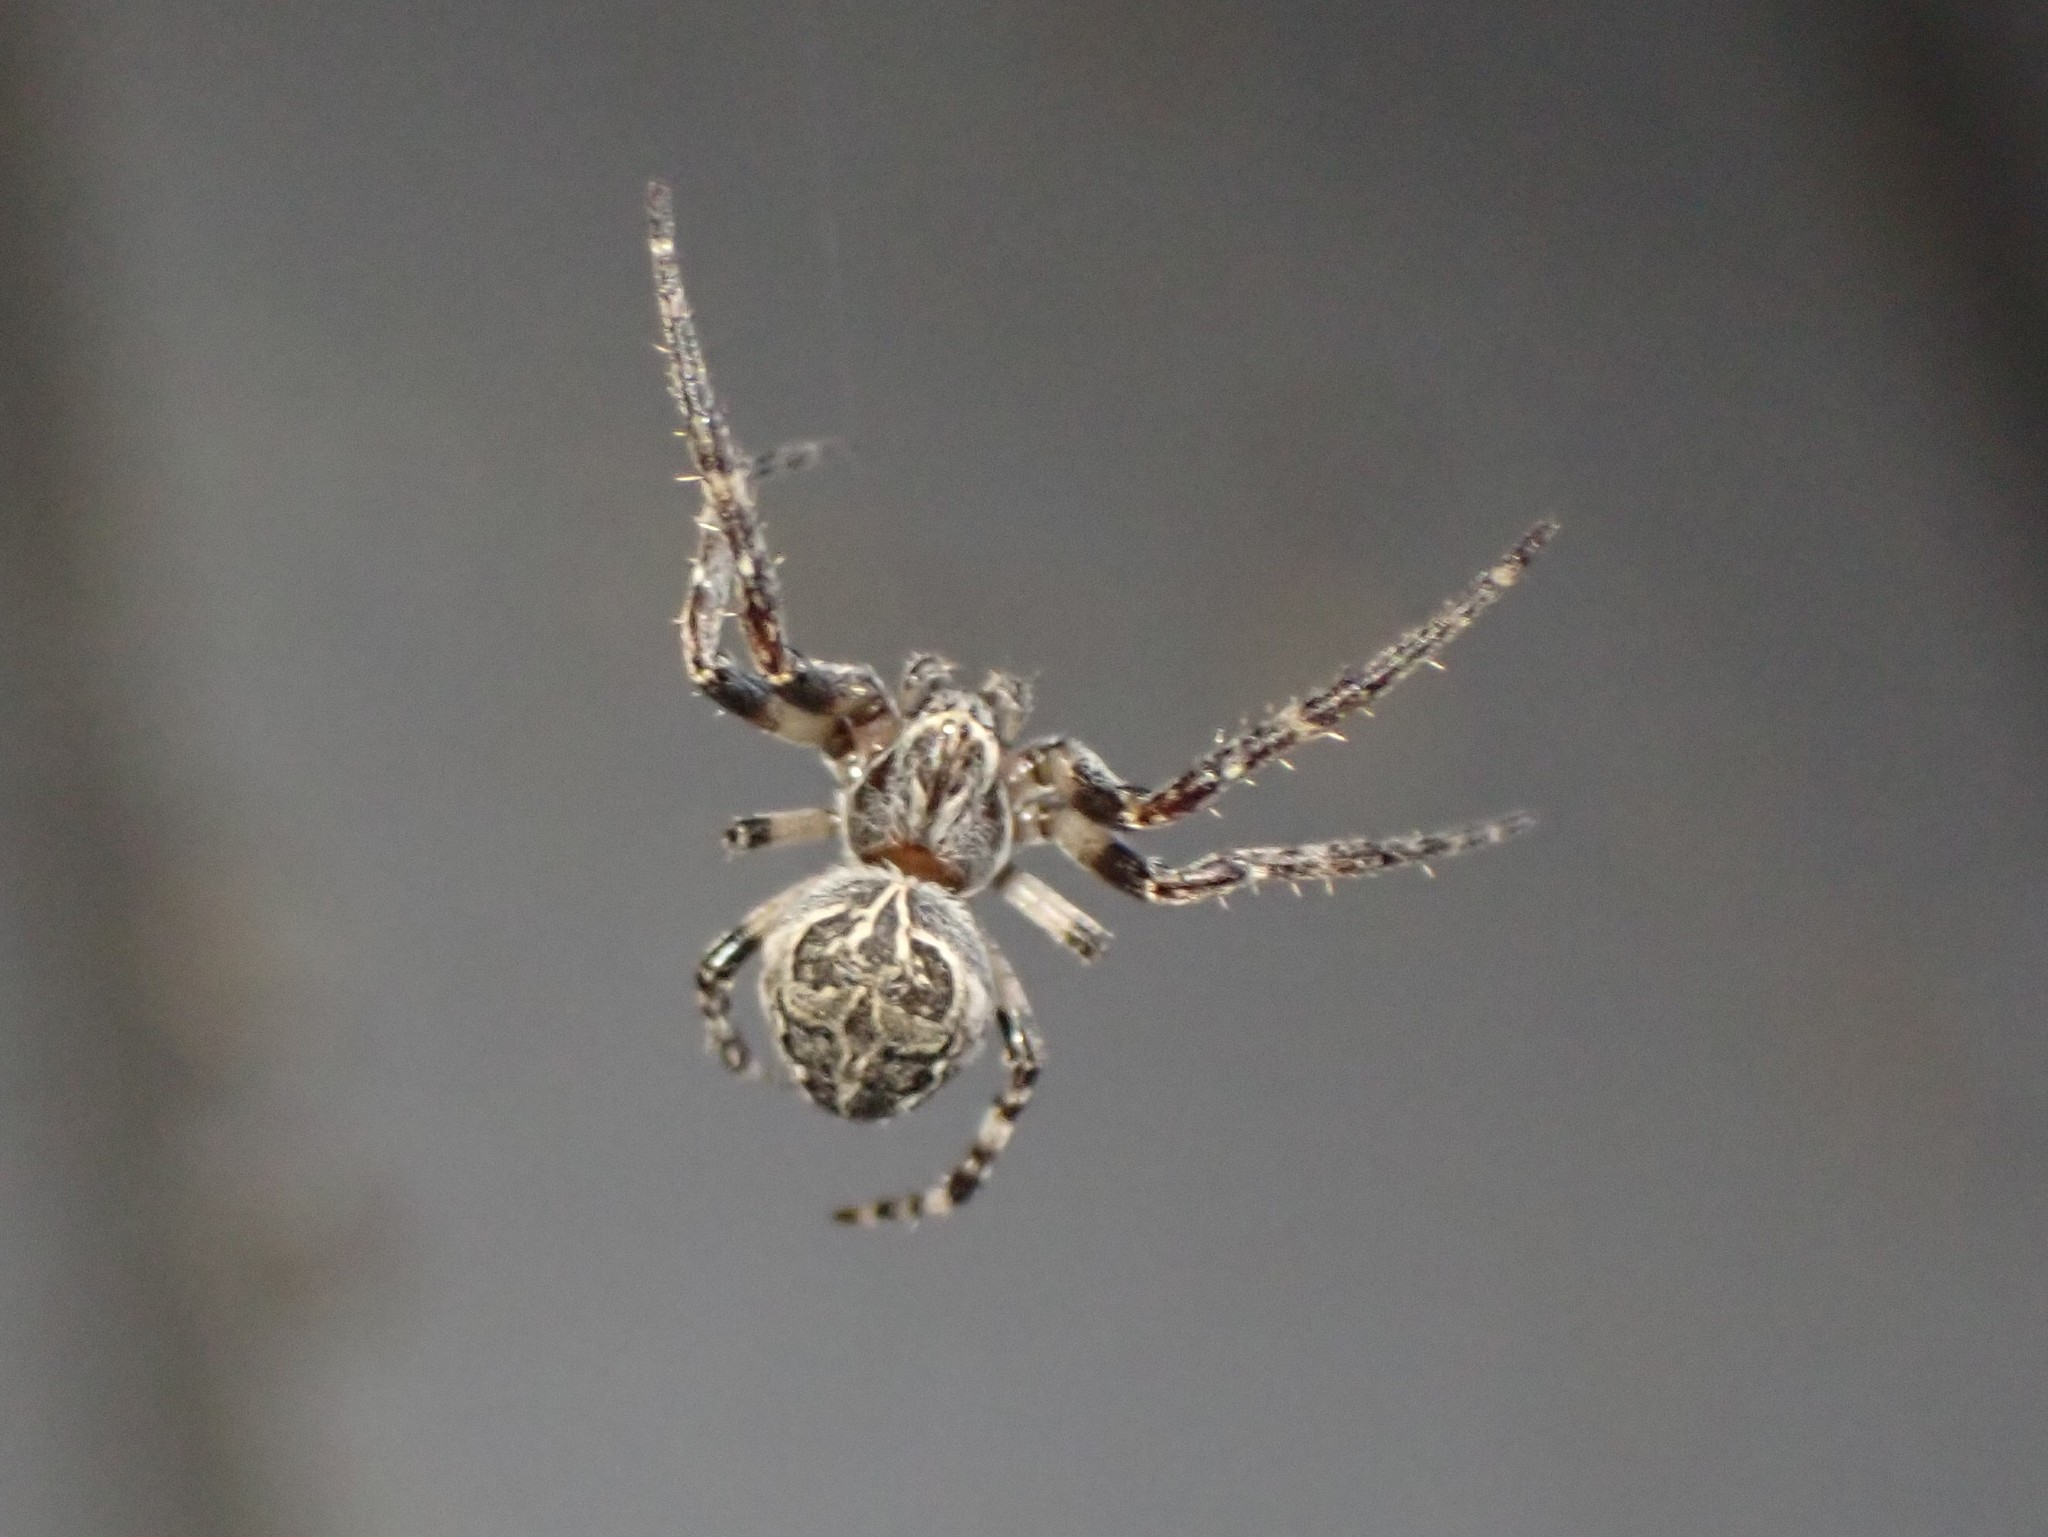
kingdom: Animalia
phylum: Arthropoda
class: Arachnida
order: Araneae
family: Araneidae
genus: Larinioides
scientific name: Larinioides sclopetarius
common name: Bridge orbweaver
